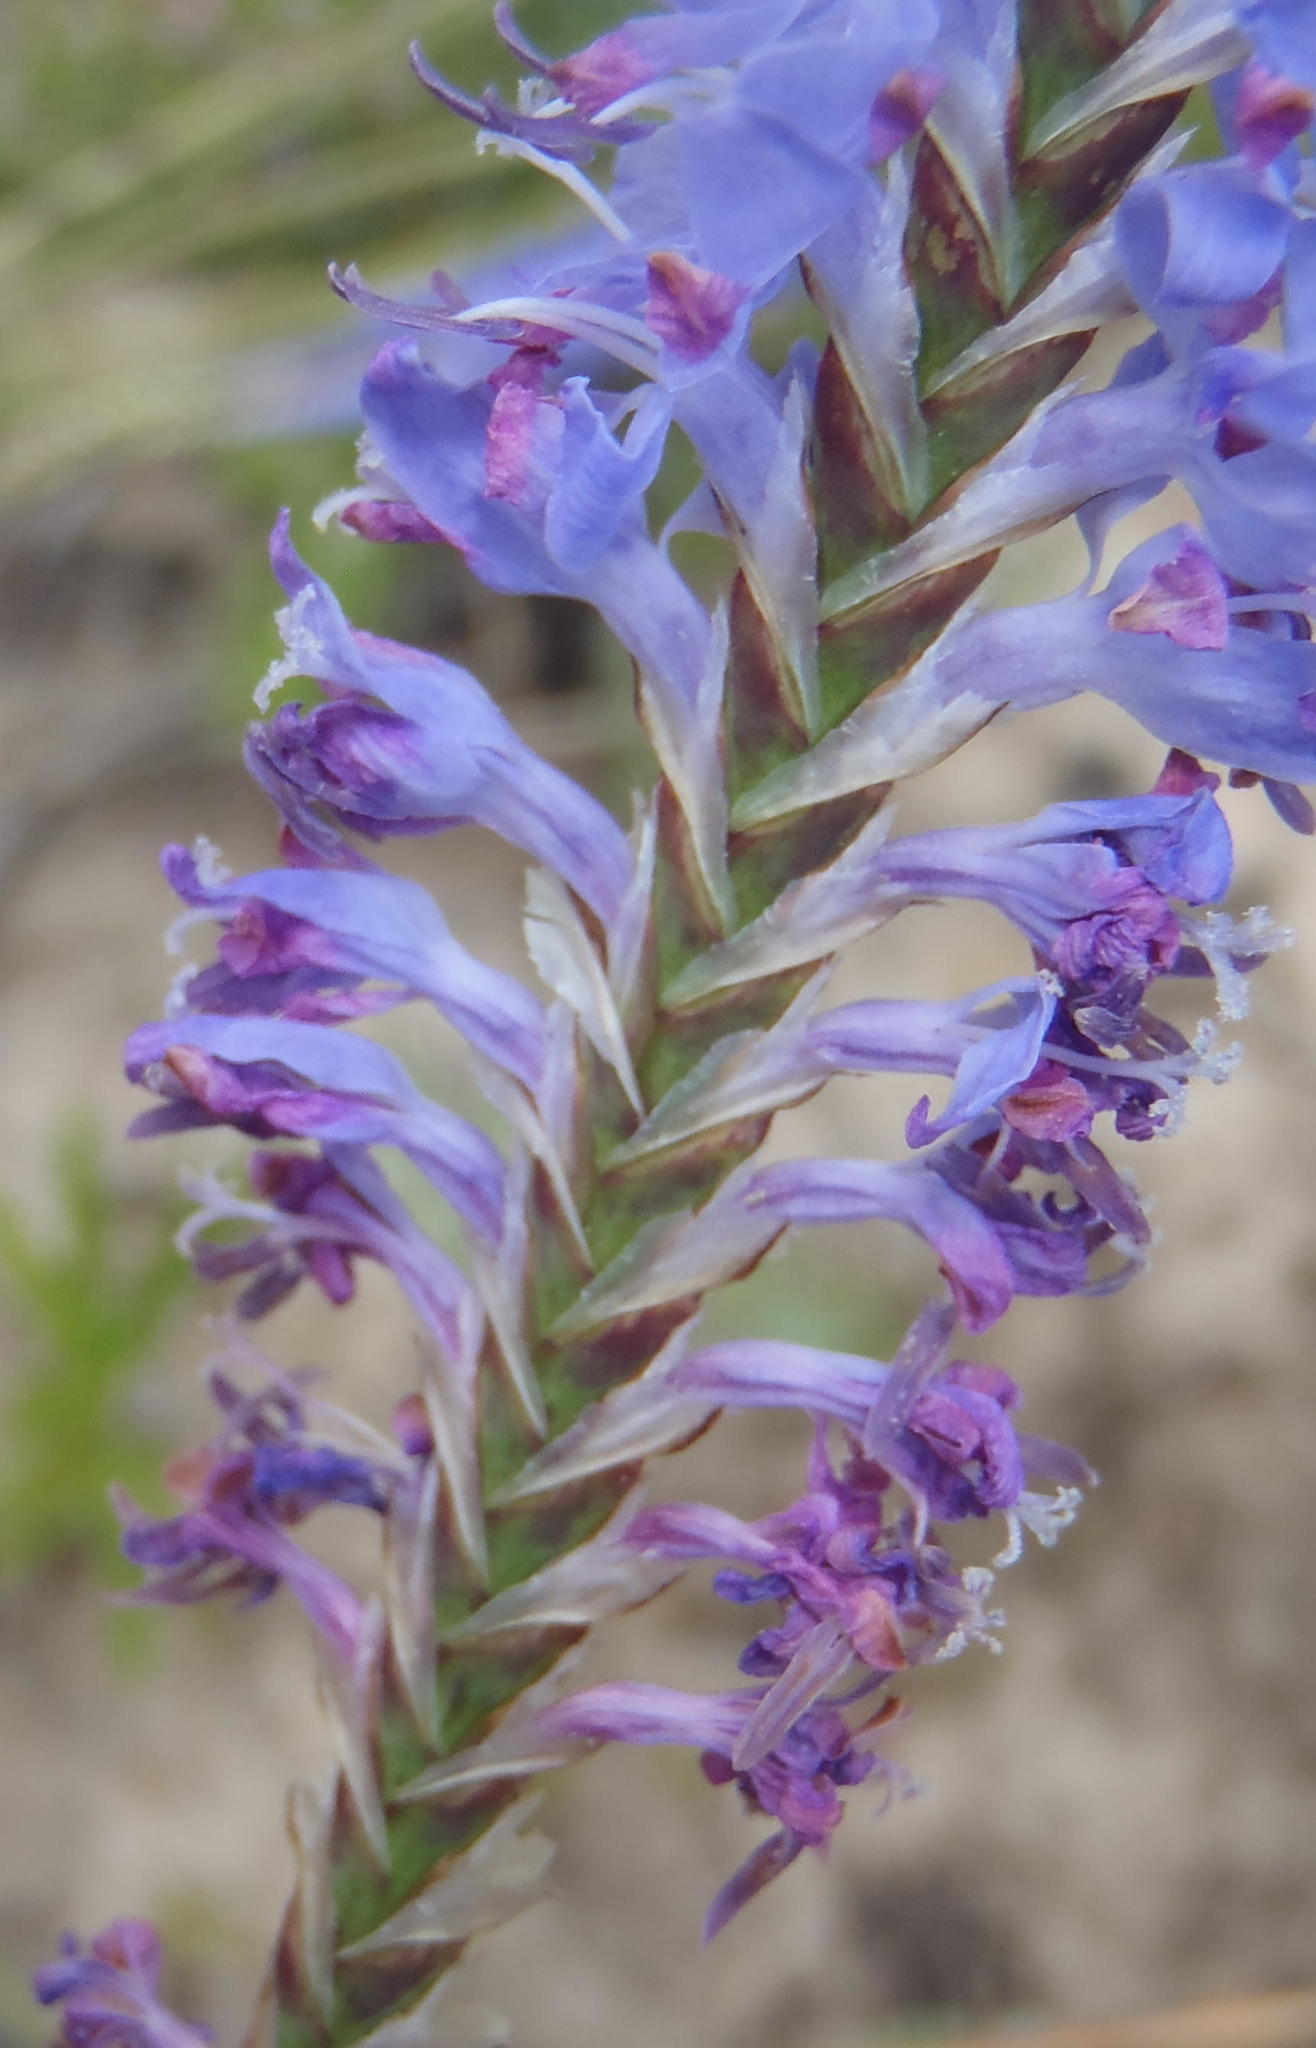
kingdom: Plantae
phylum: Tracheophyta
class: Liliopsida
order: Asparagales
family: Iridaceae
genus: Micranthus
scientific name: Micranthus plantagineus
